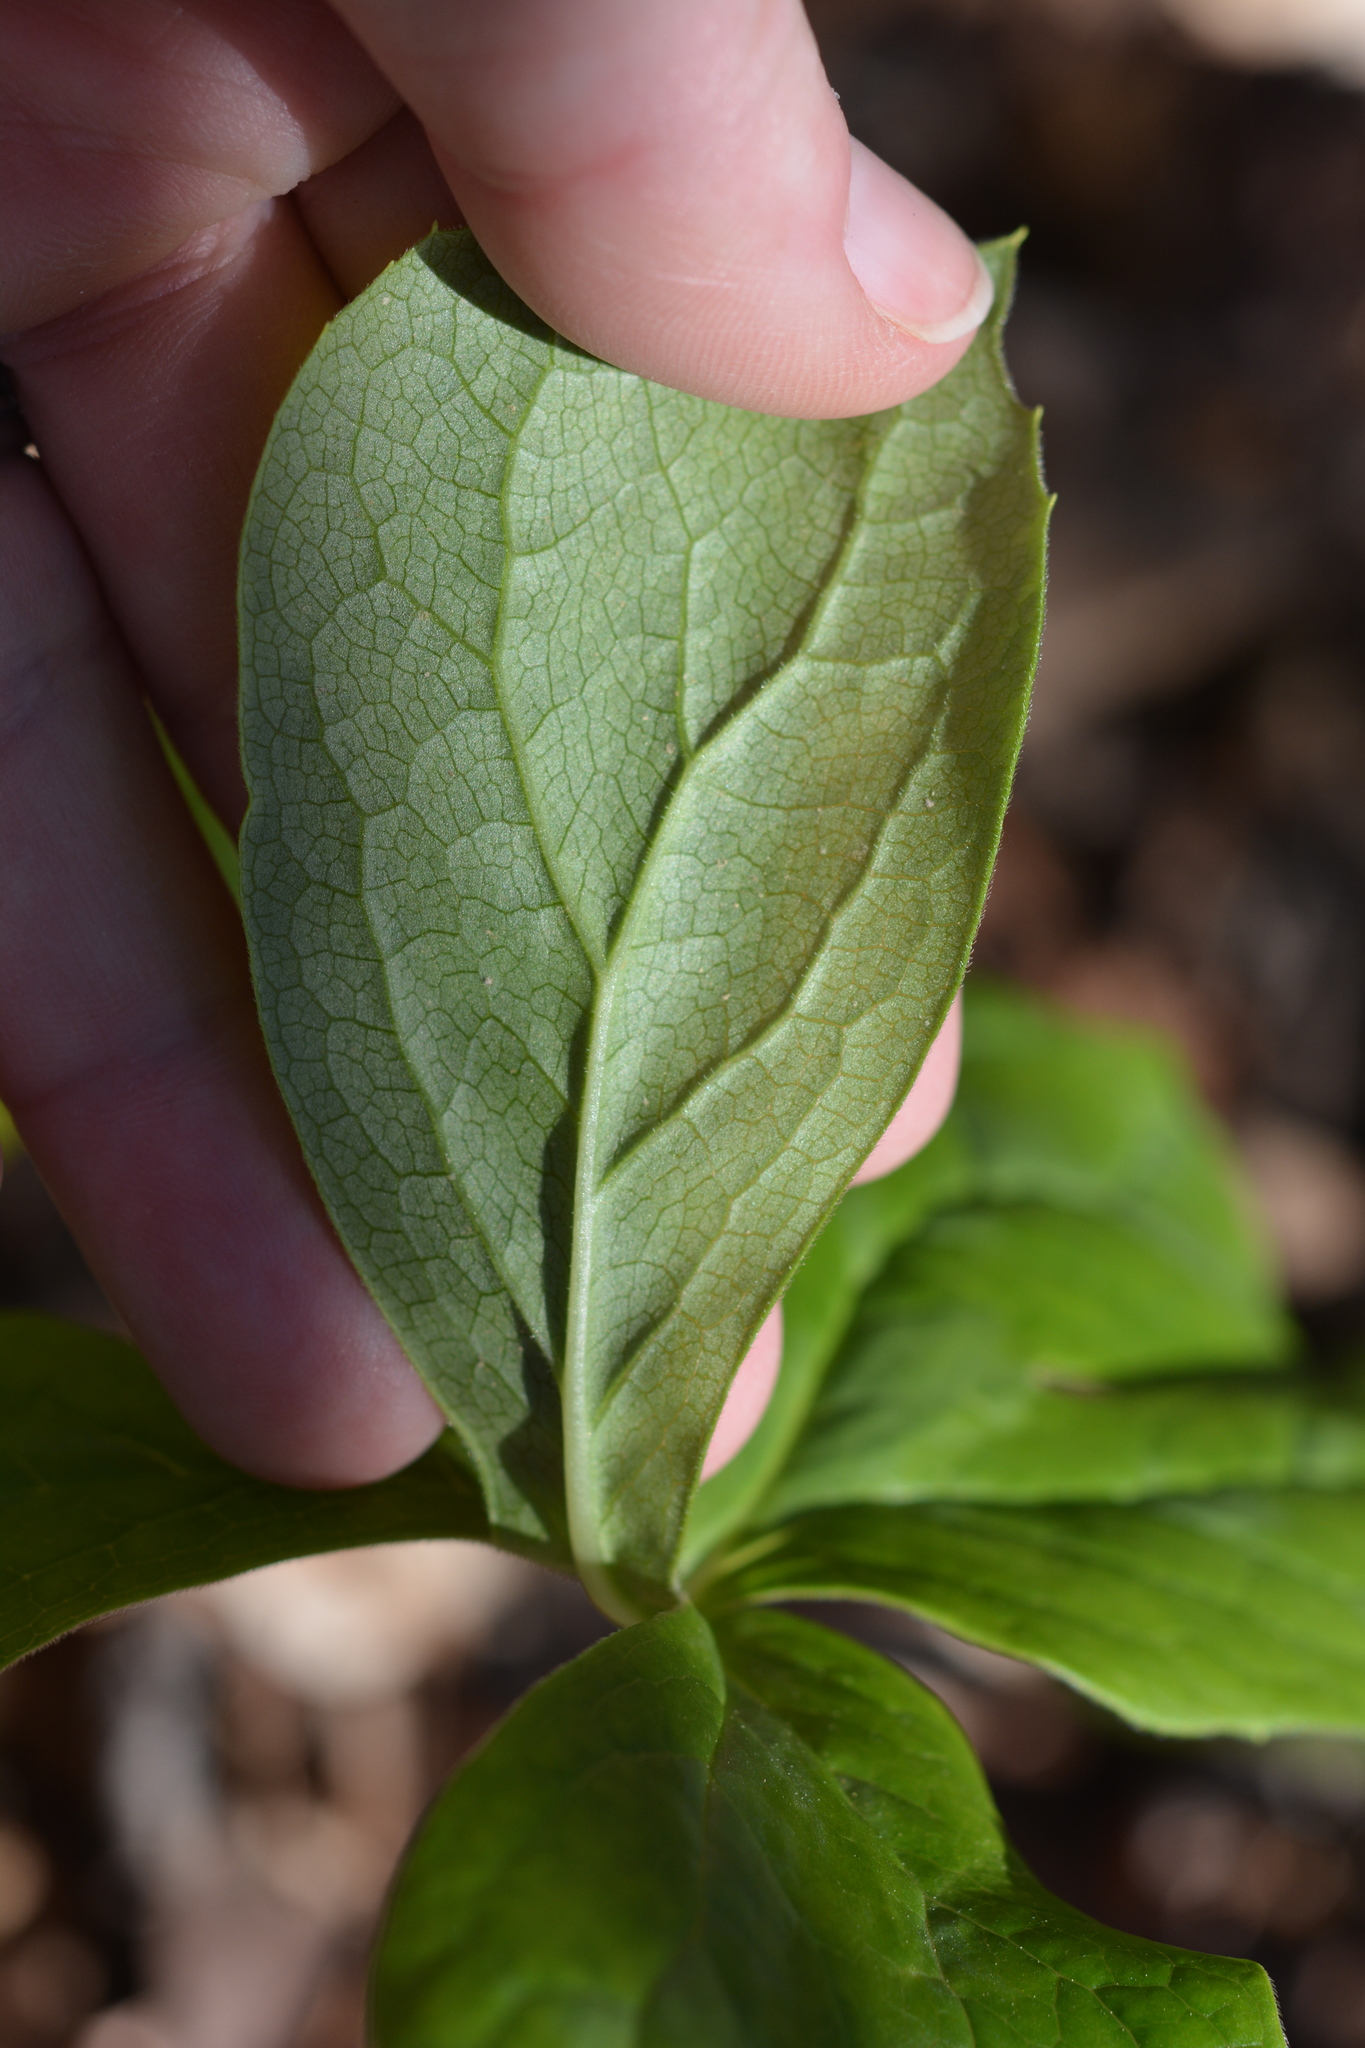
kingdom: Plantae
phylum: Tracheophyta
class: Magnoliopsida
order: Ranunculales
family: Berberidaceae
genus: Podophyllum
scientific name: Podophyllum peltatum
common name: Wild mandrake
